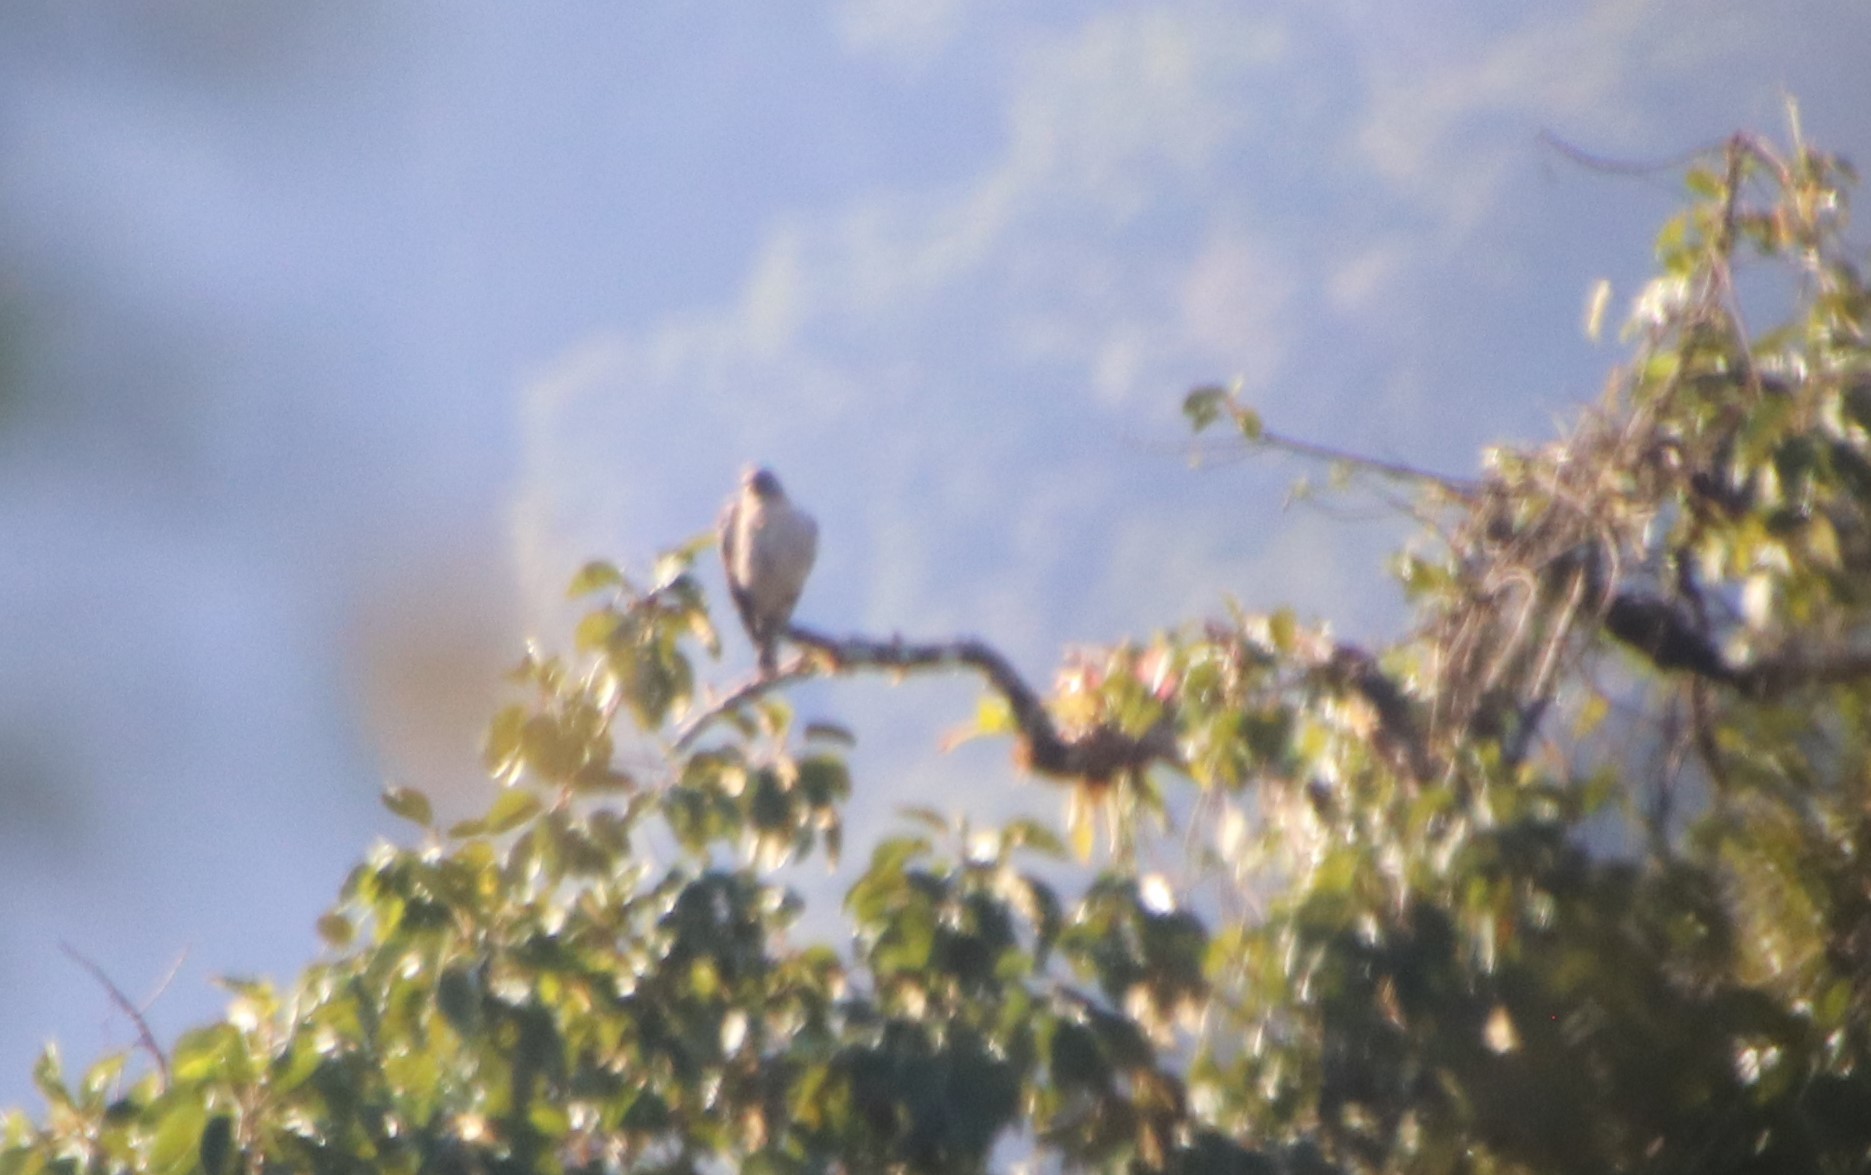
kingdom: Animalia
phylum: Chordata
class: Aves
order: Accipitriformes
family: Accipitridae
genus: Accipiter
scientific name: Accipiter superciliosus
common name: Tiny hawk
